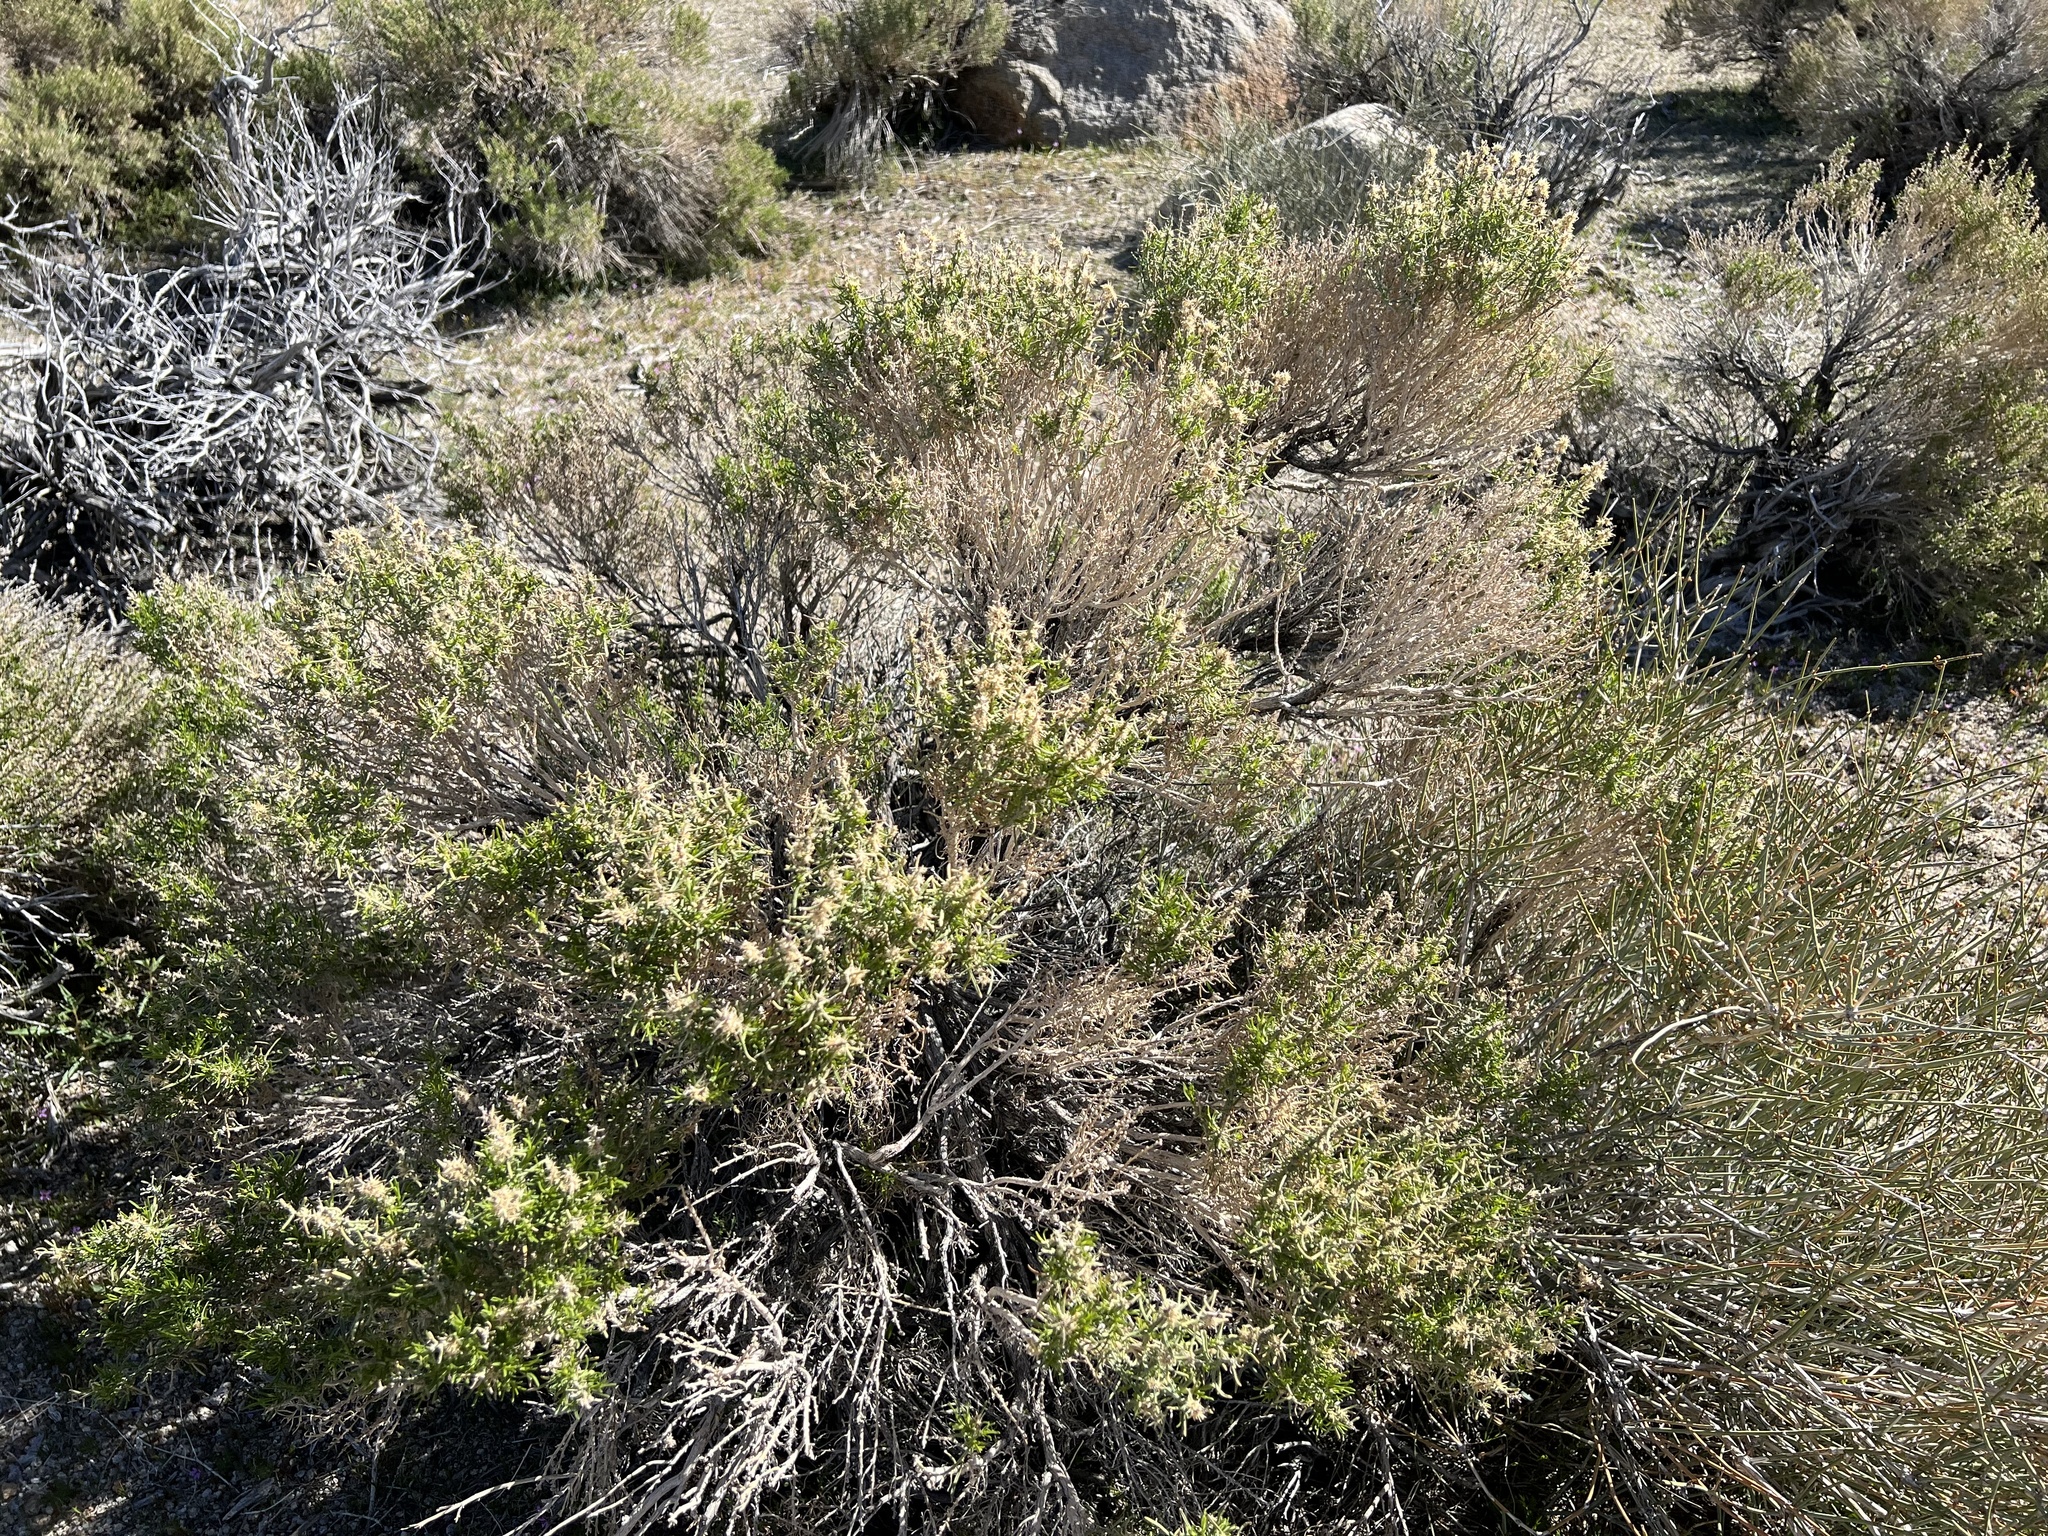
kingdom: Plantae
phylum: Tracheophyta
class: Magnoliopsida
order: Asterales
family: Asteraceae
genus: Ericameria
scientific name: Ericameria teretifolia
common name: Round-leaf rabbitbrush
